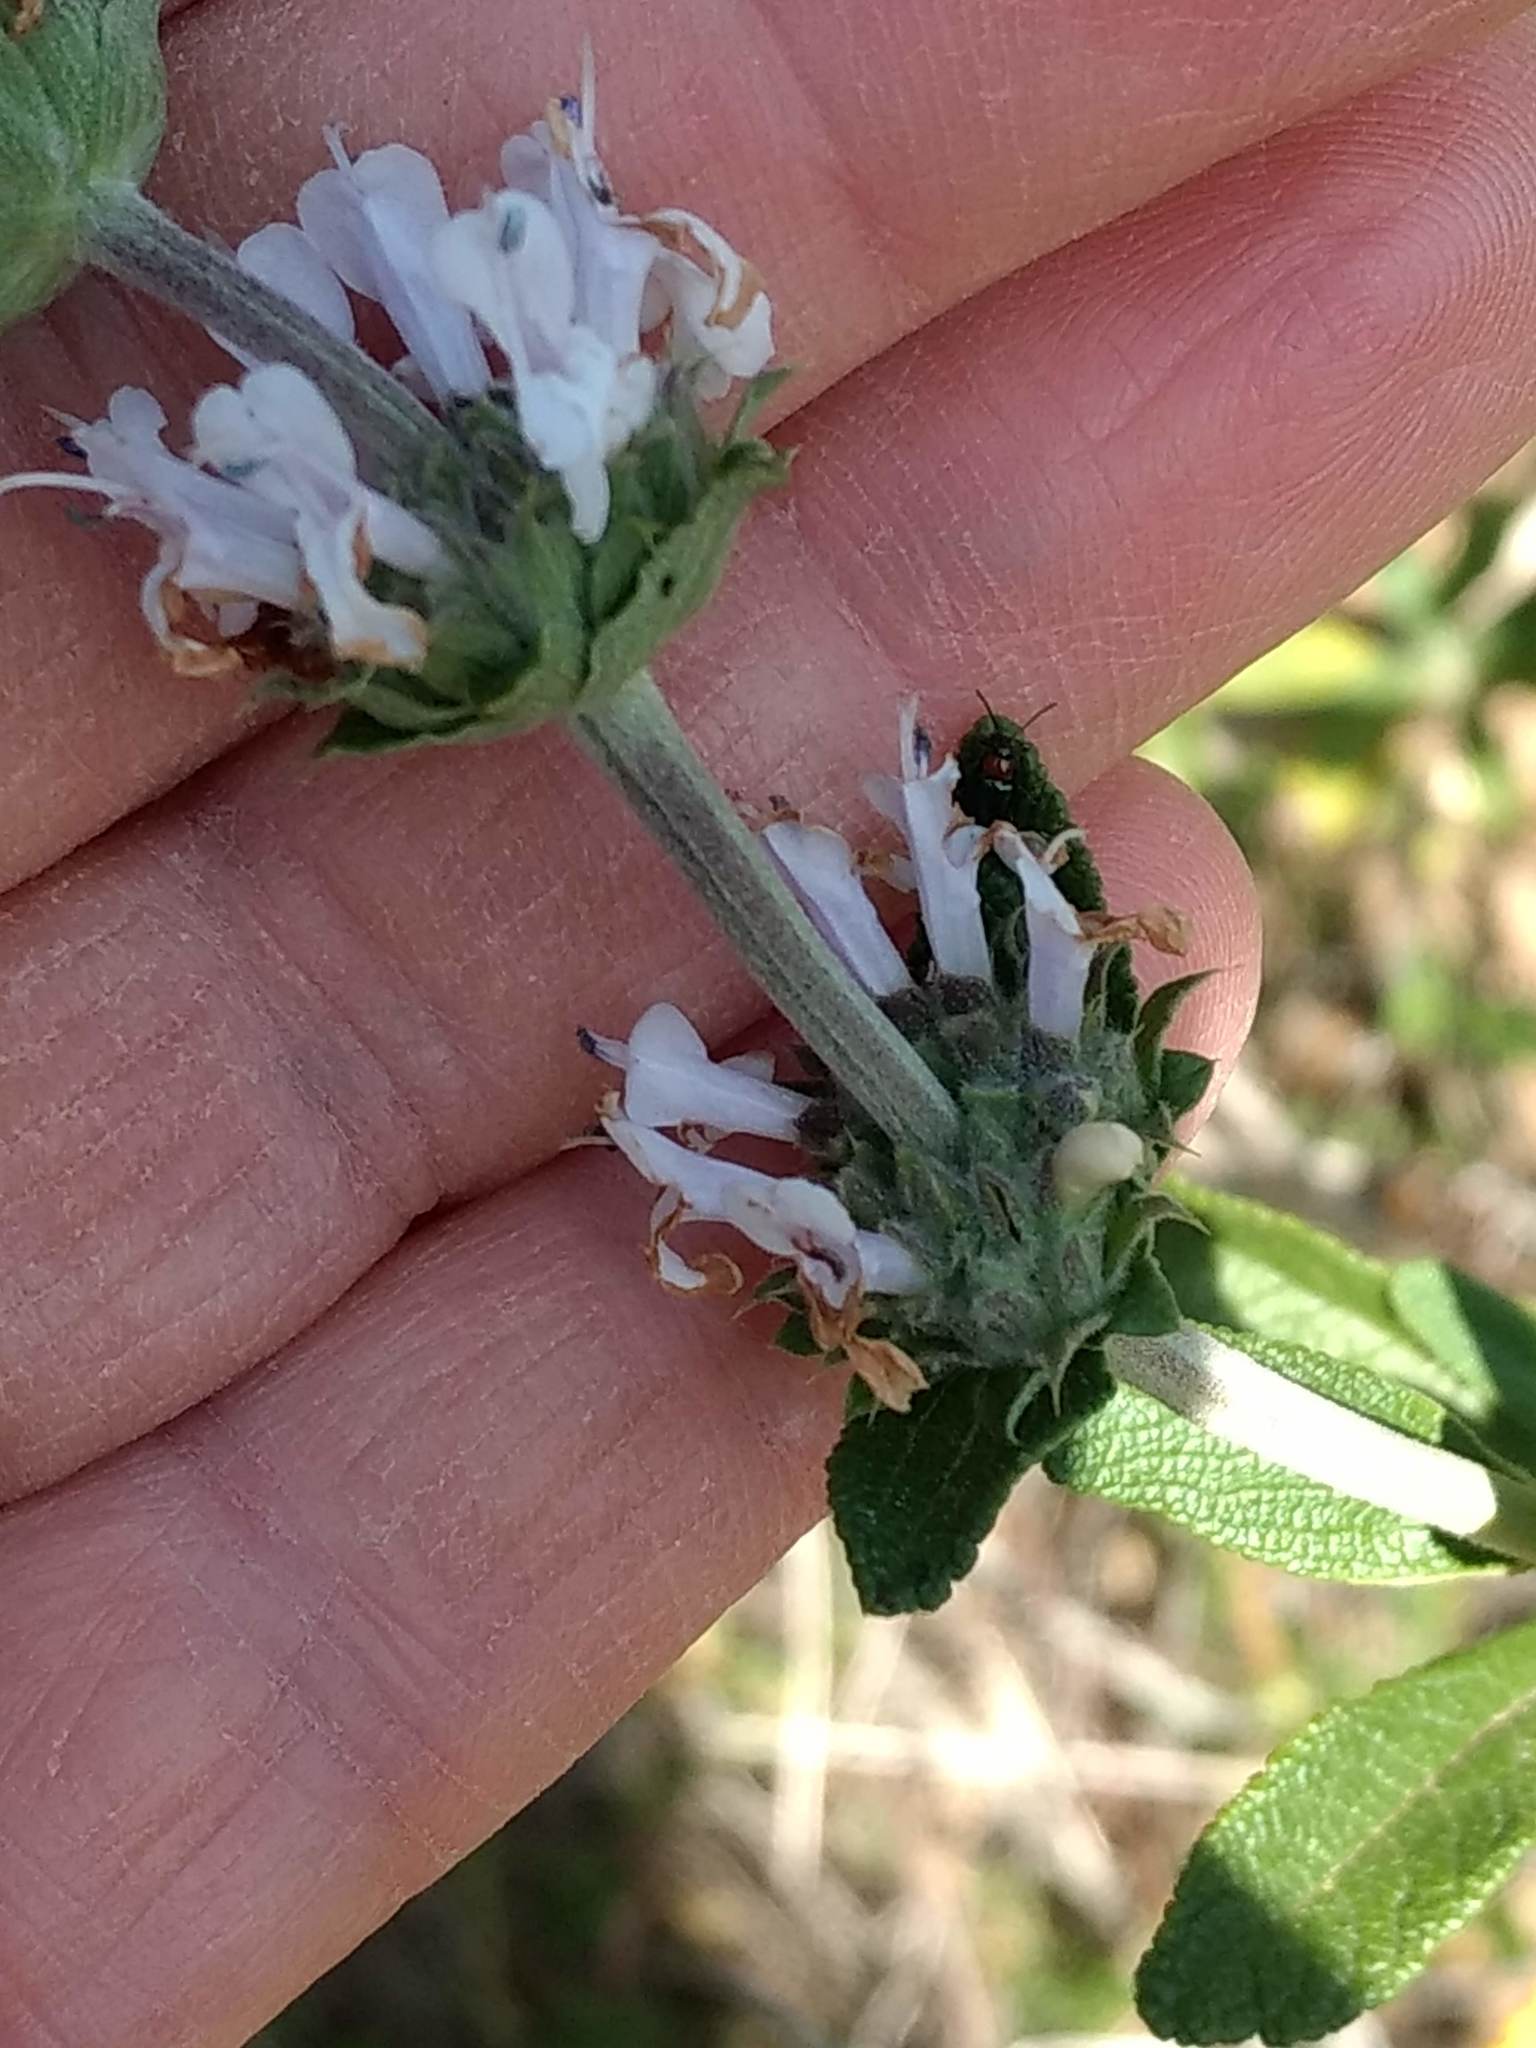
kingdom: Plantae
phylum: Tracheophyta
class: Magnoliopsida
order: Lamiales
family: Lamiaceae
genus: Salvia
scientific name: Salvia mellifera
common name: Black sage
